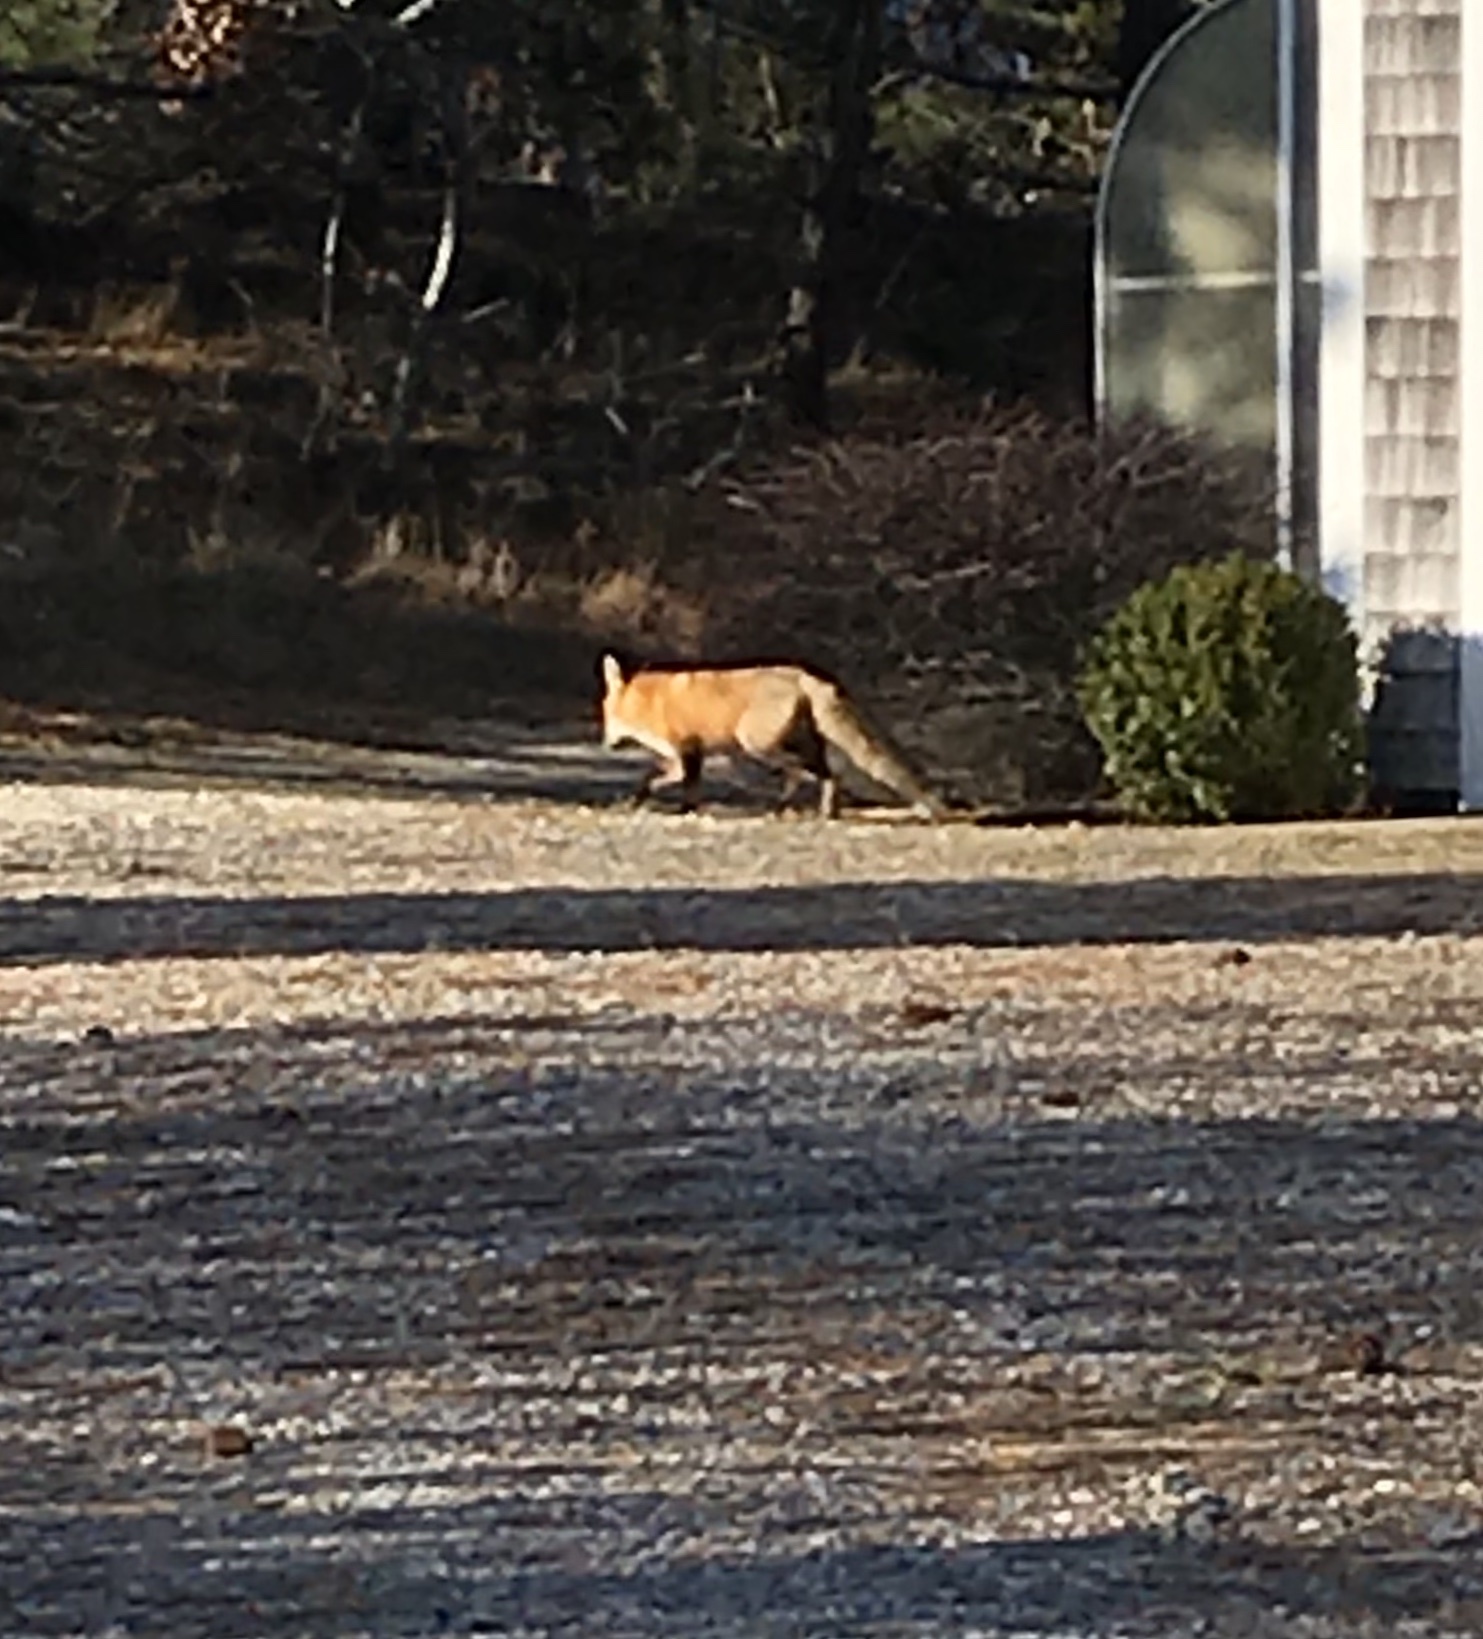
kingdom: Animalia
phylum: Chordata
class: Mammalia
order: Carnivora
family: Canidae
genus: Vulpes
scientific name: Vulpes vulpes
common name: Red fox
